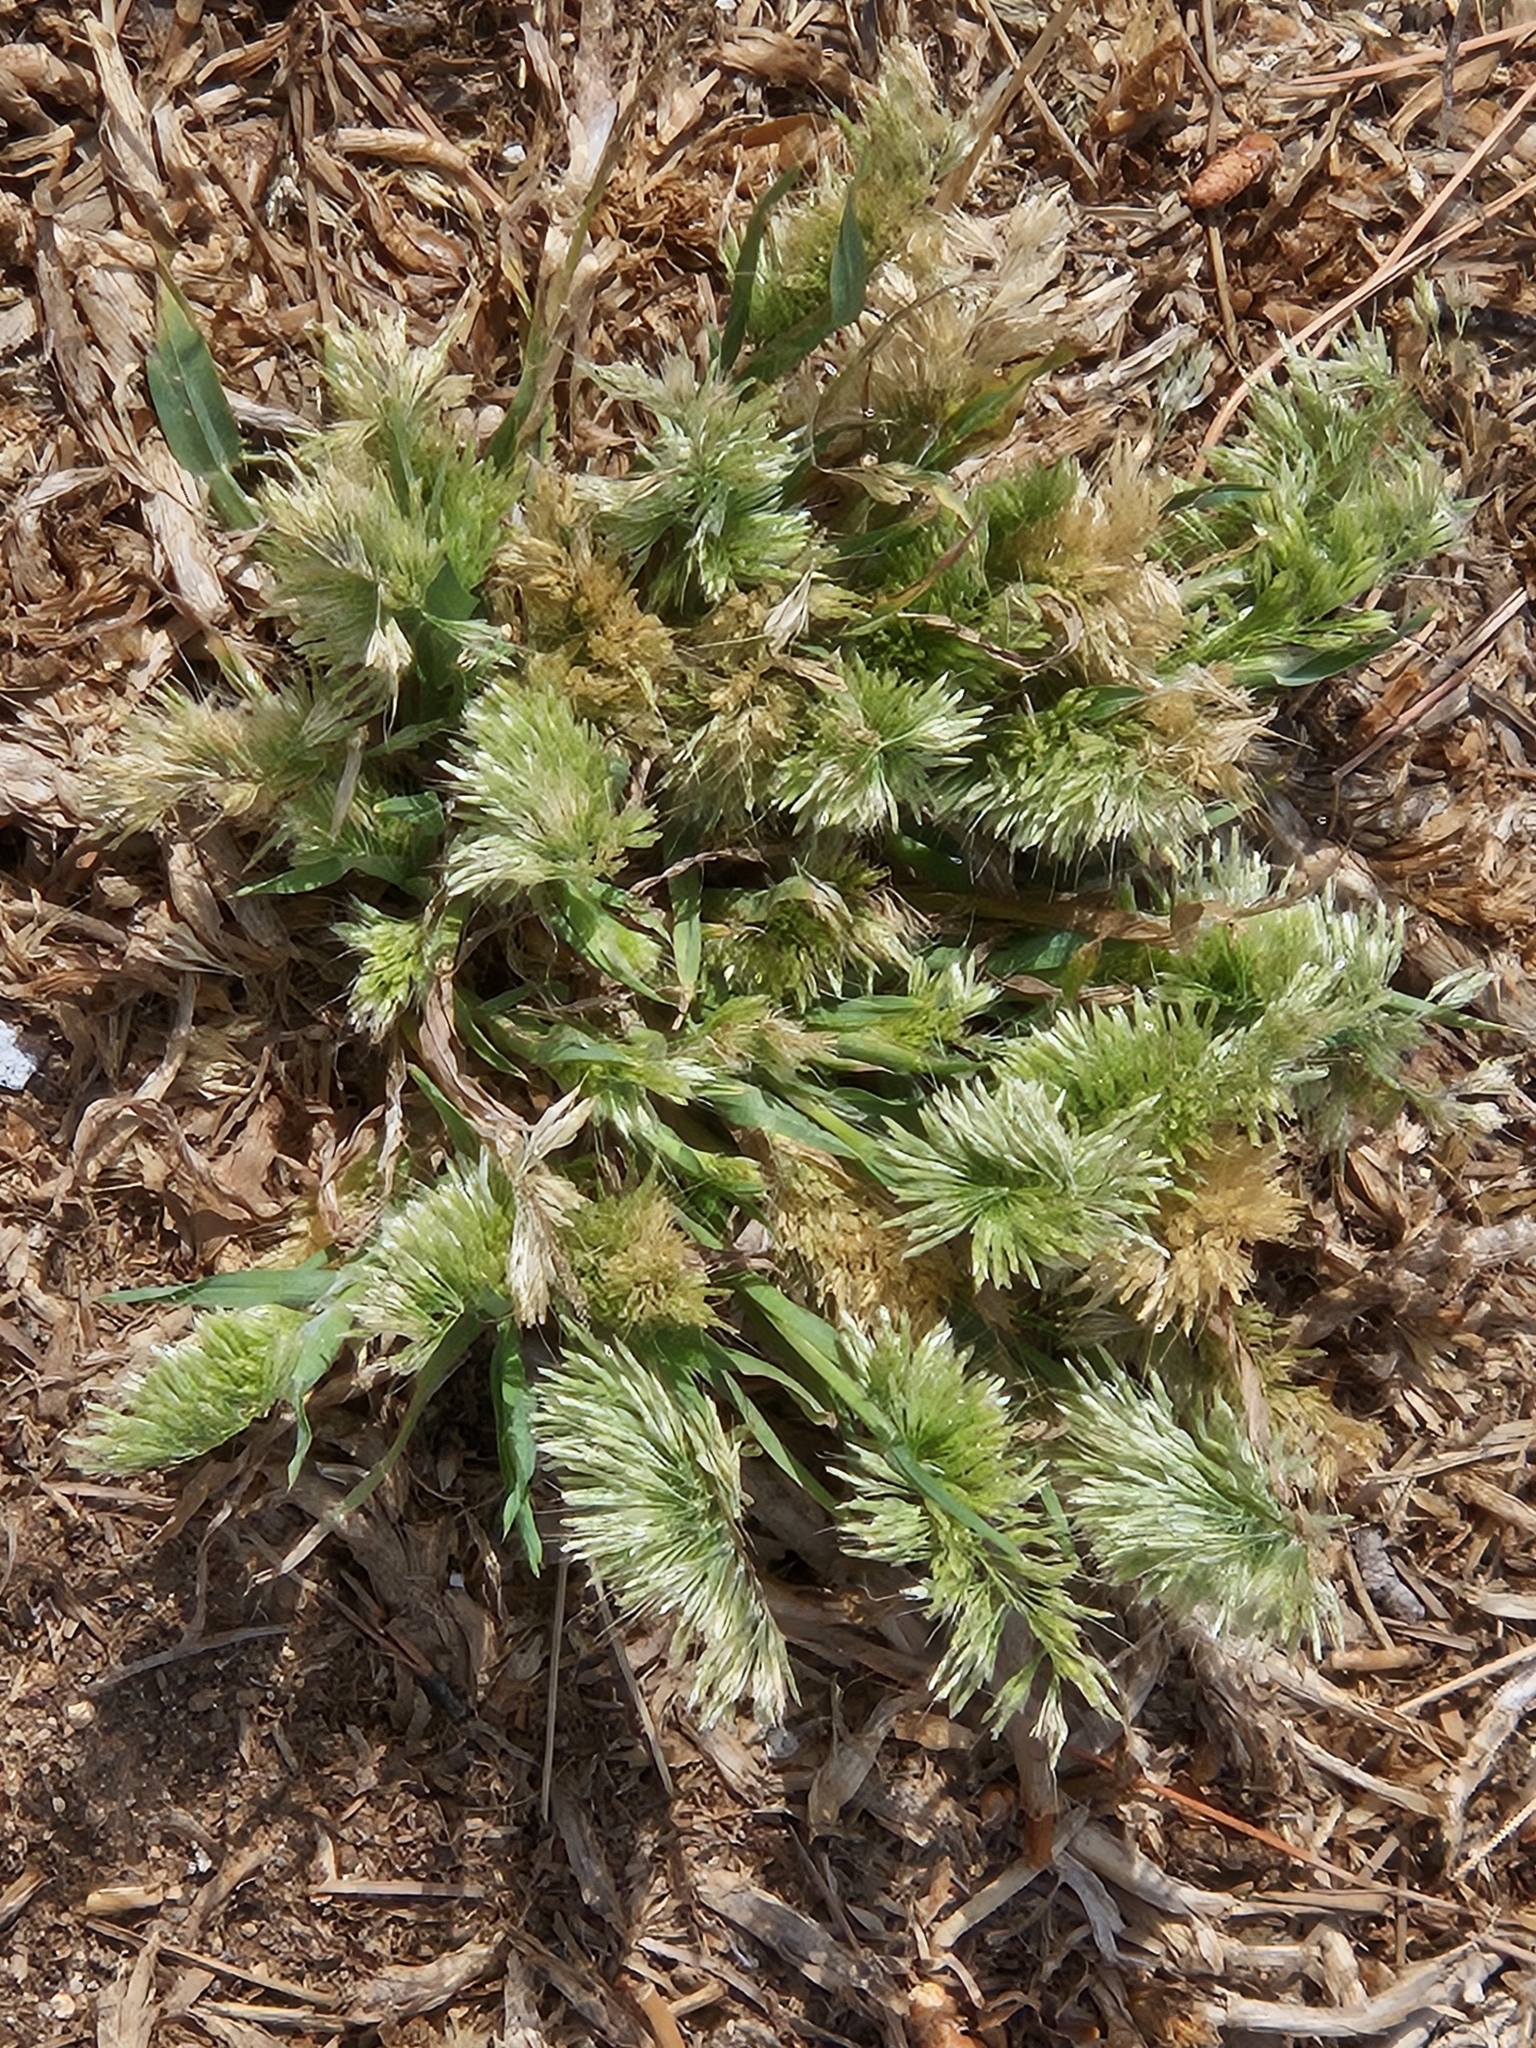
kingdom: Plantae
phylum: Tracheophyta
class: Liliopsida
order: Poales
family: Poaceae
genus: Lamarckia
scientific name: Lamarckia aurea
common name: Golden dog's-tail
